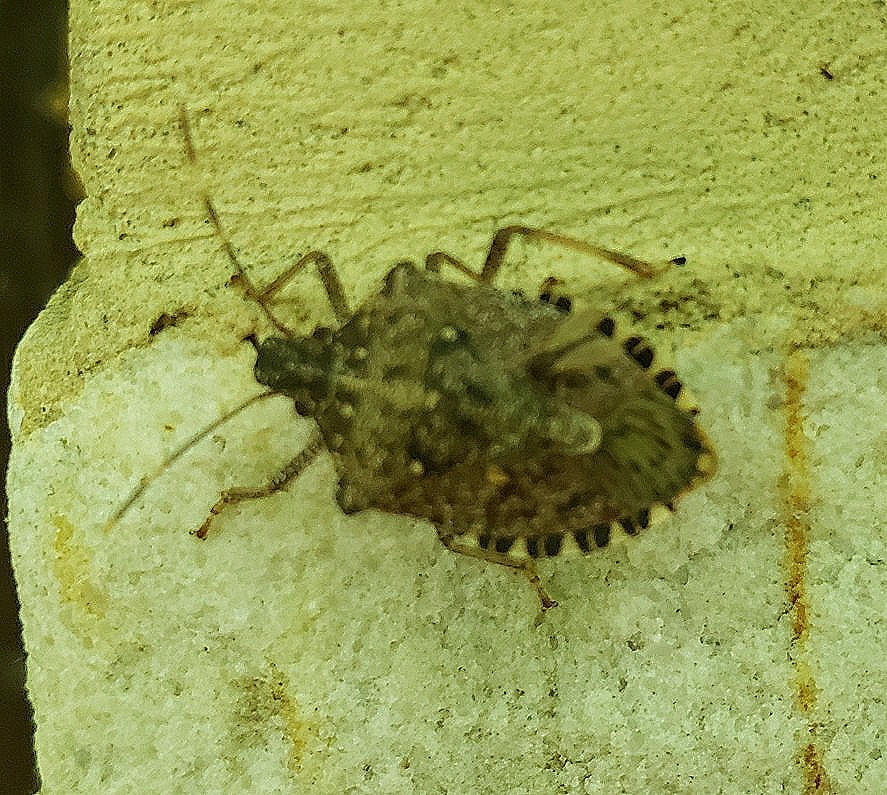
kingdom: Animalia
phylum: Arthropoda
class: Insecta
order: Hemiptera
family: Pentatomidae
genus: Halyomorpha
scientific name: Halyomorpha halys
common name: Brown marmorated stink bug
